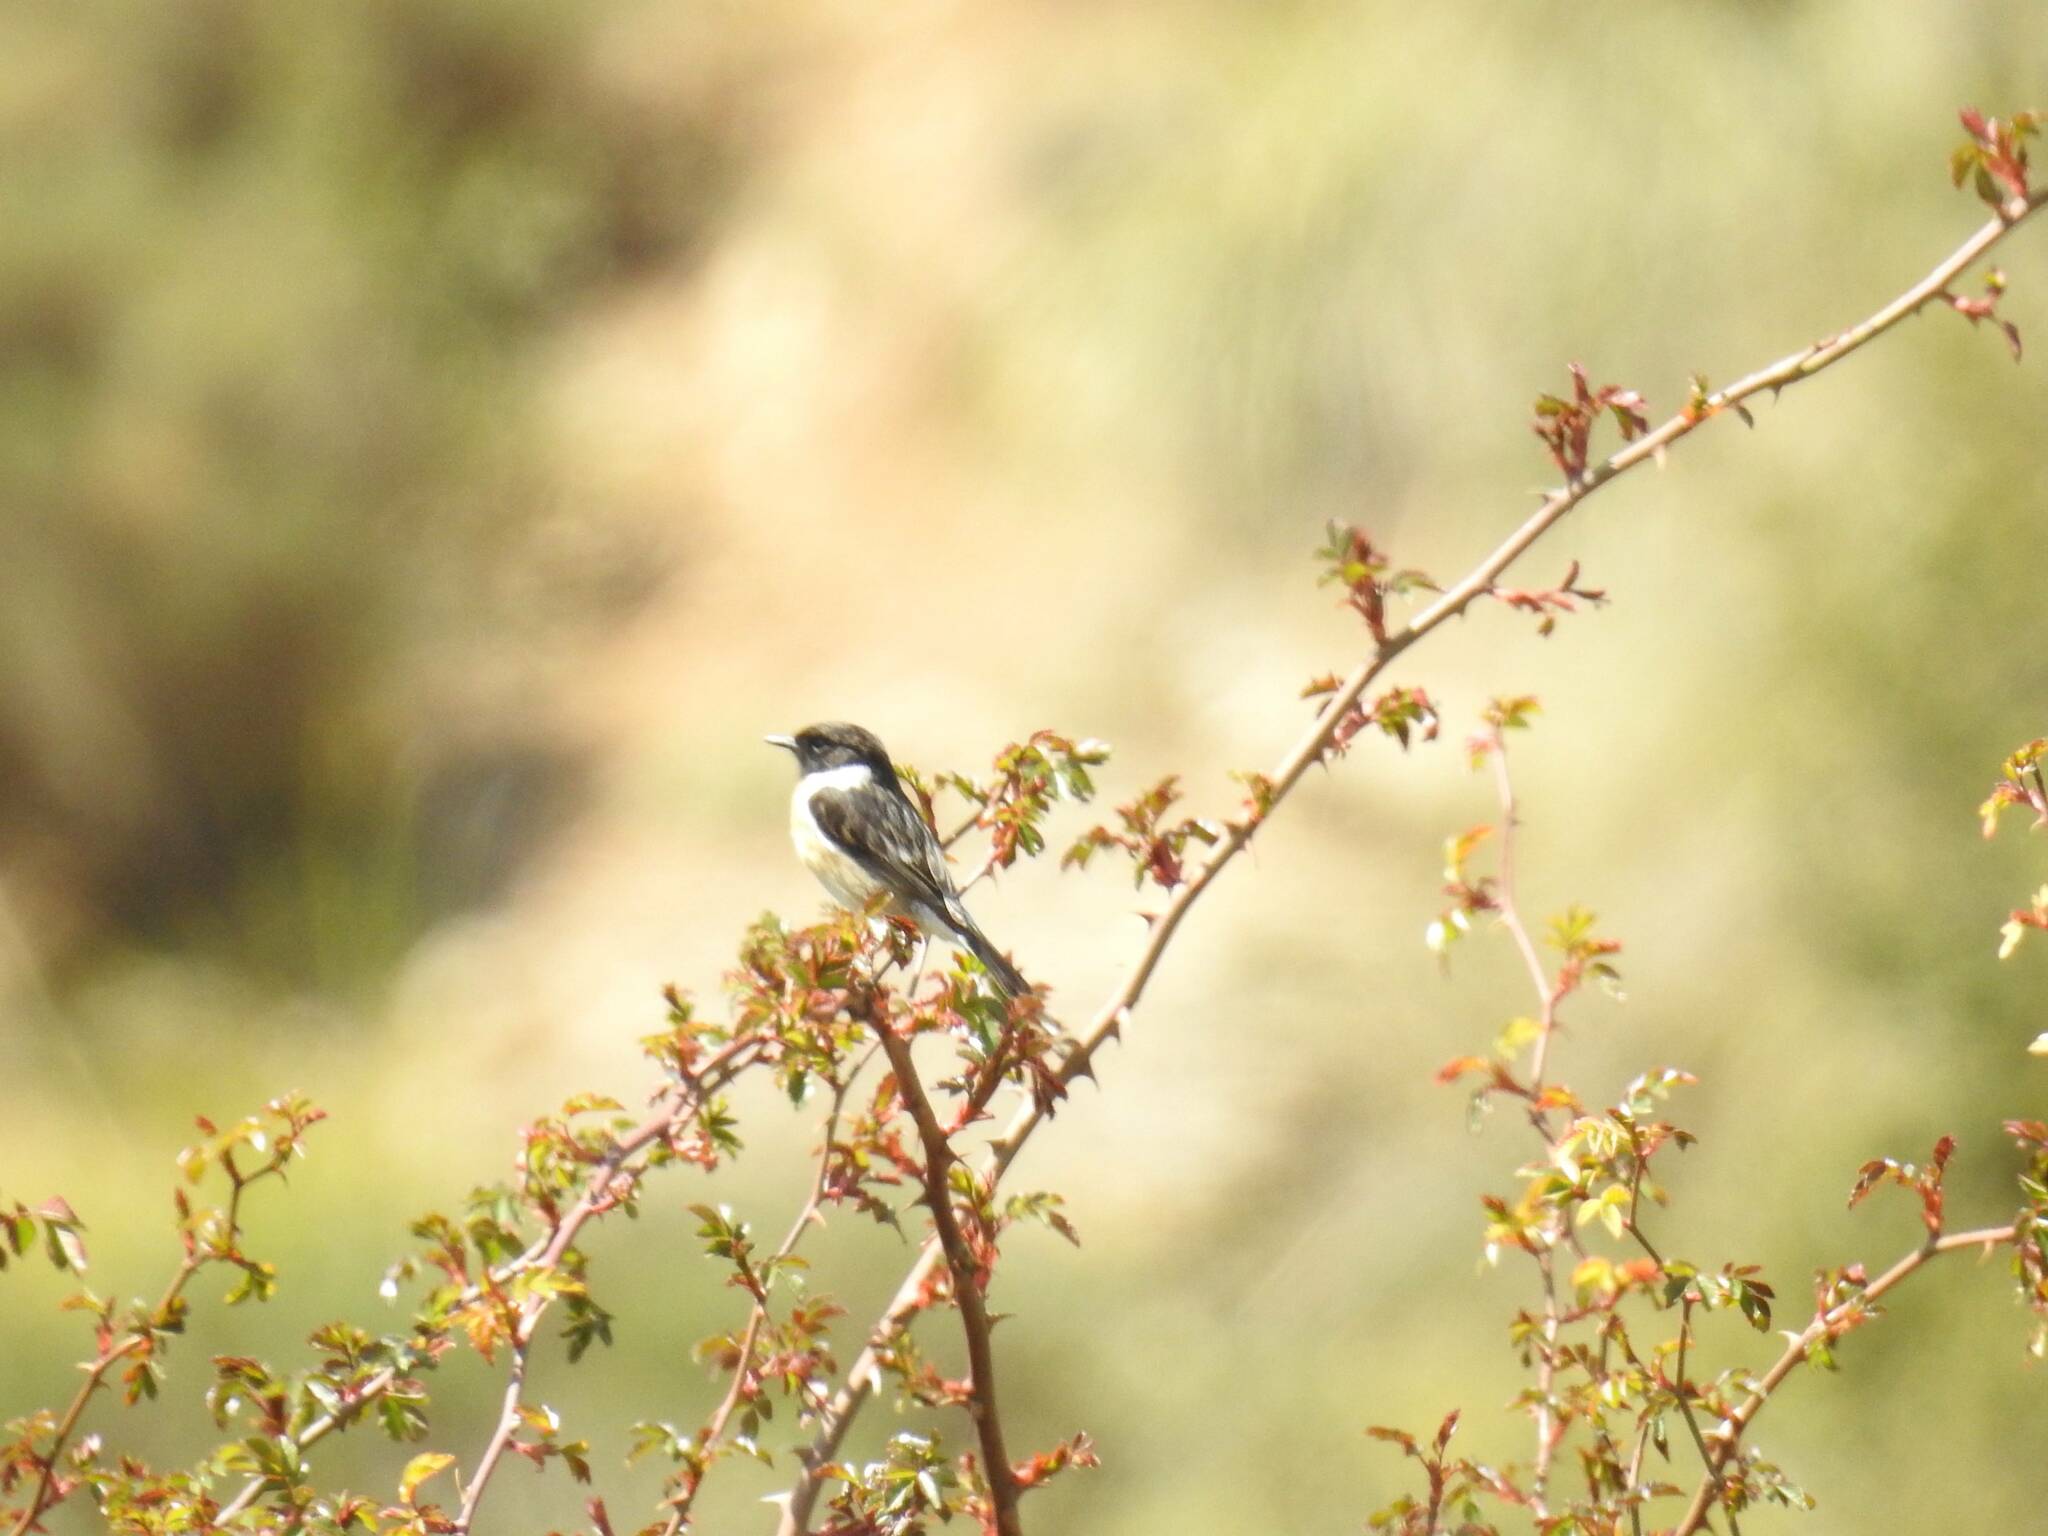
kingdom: Animalia
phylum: Chordata
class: Aves
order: Passeriformes
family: Muscicapidae
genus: Saxicola
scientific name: Saxicola rubicola
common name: European stonechat
